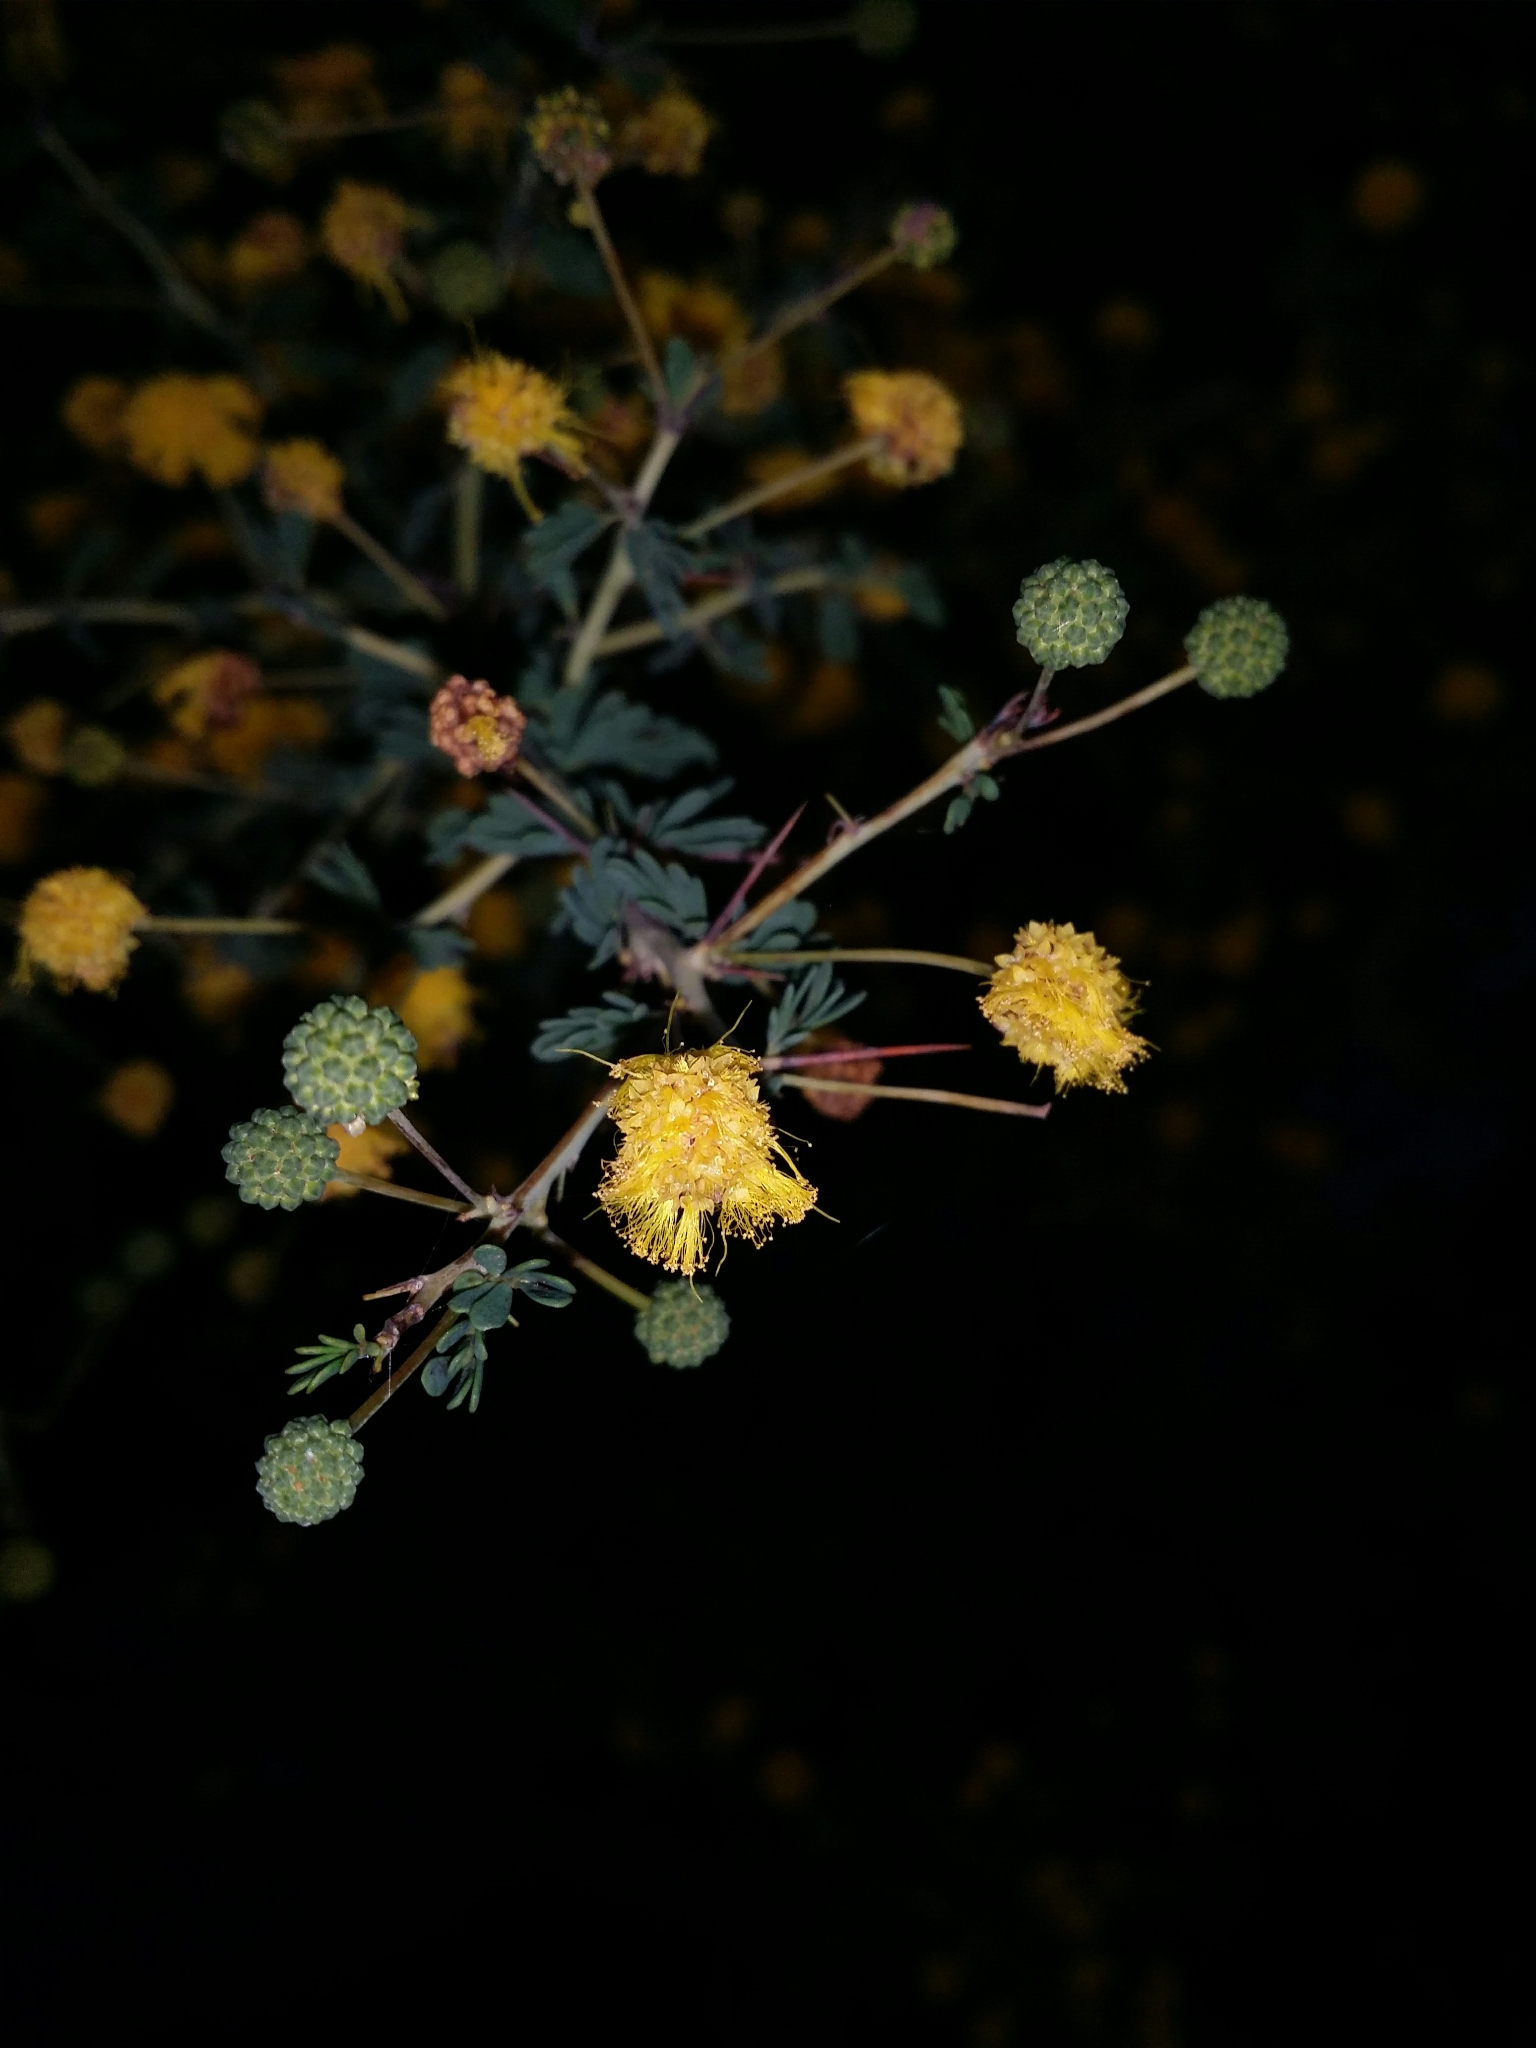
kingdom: Plantae
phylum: Tracheophyta
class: Magnoliopsida
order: Fabales
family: Fabaceae
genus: Acacia
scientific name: Acacia pulchella
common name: Prickly moses
